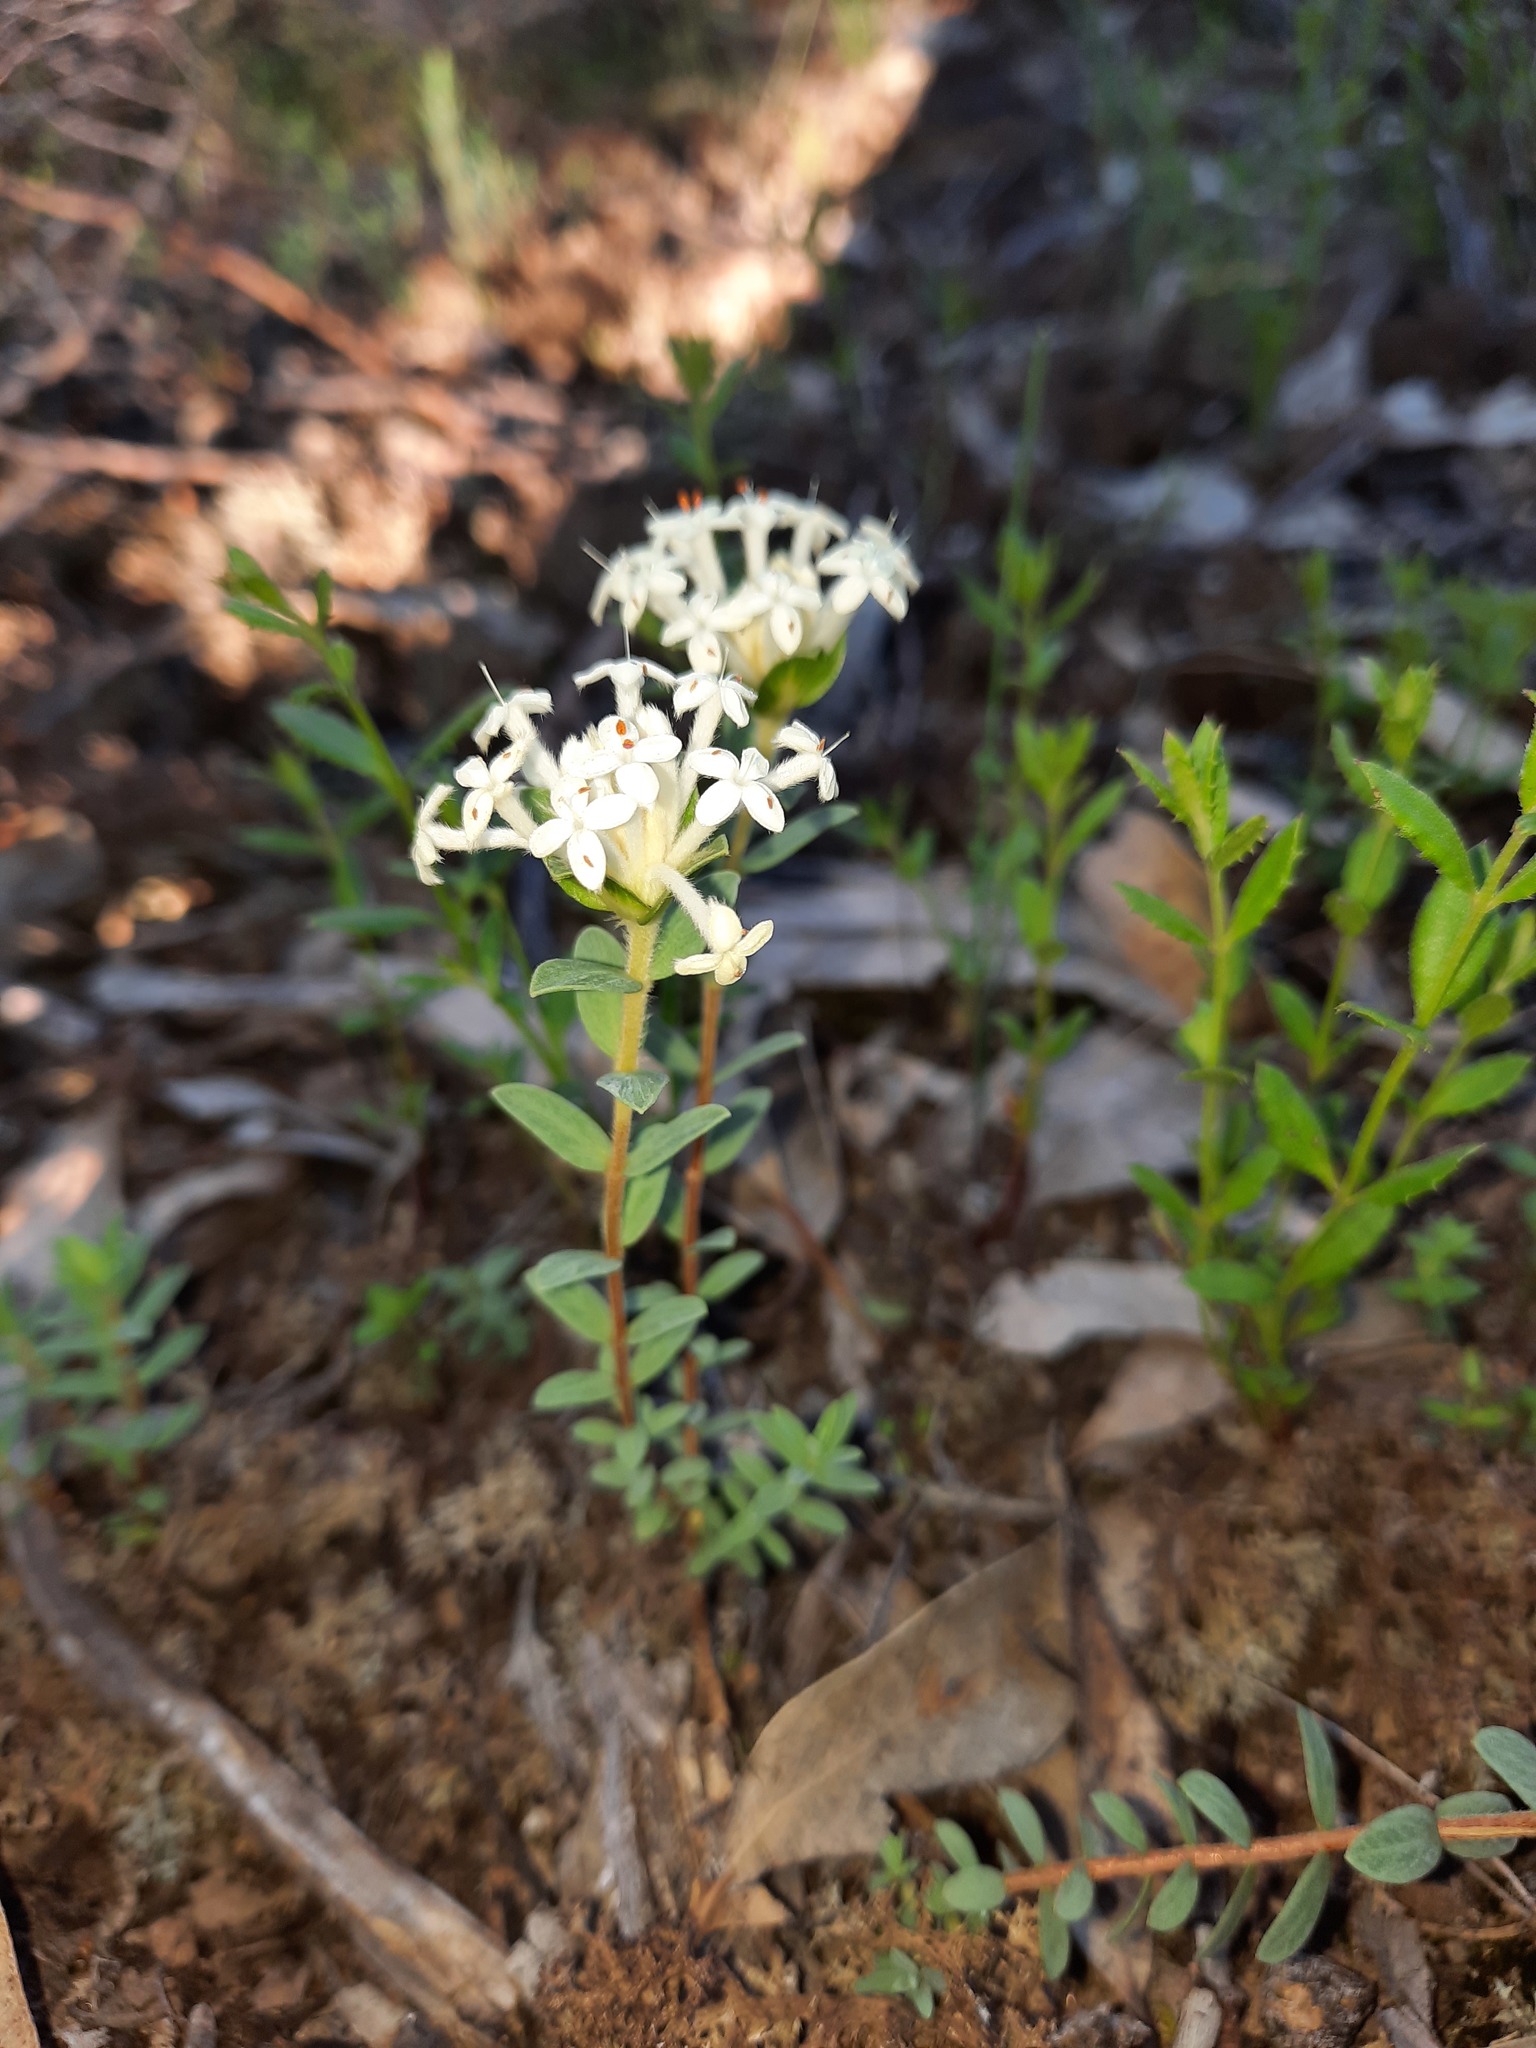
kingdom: Plantae
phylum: Tracheophyta
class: Magnoliopsida
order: Malvales
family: Thymelaeaceae
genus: Pimelea
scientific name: Pimelea humilis
